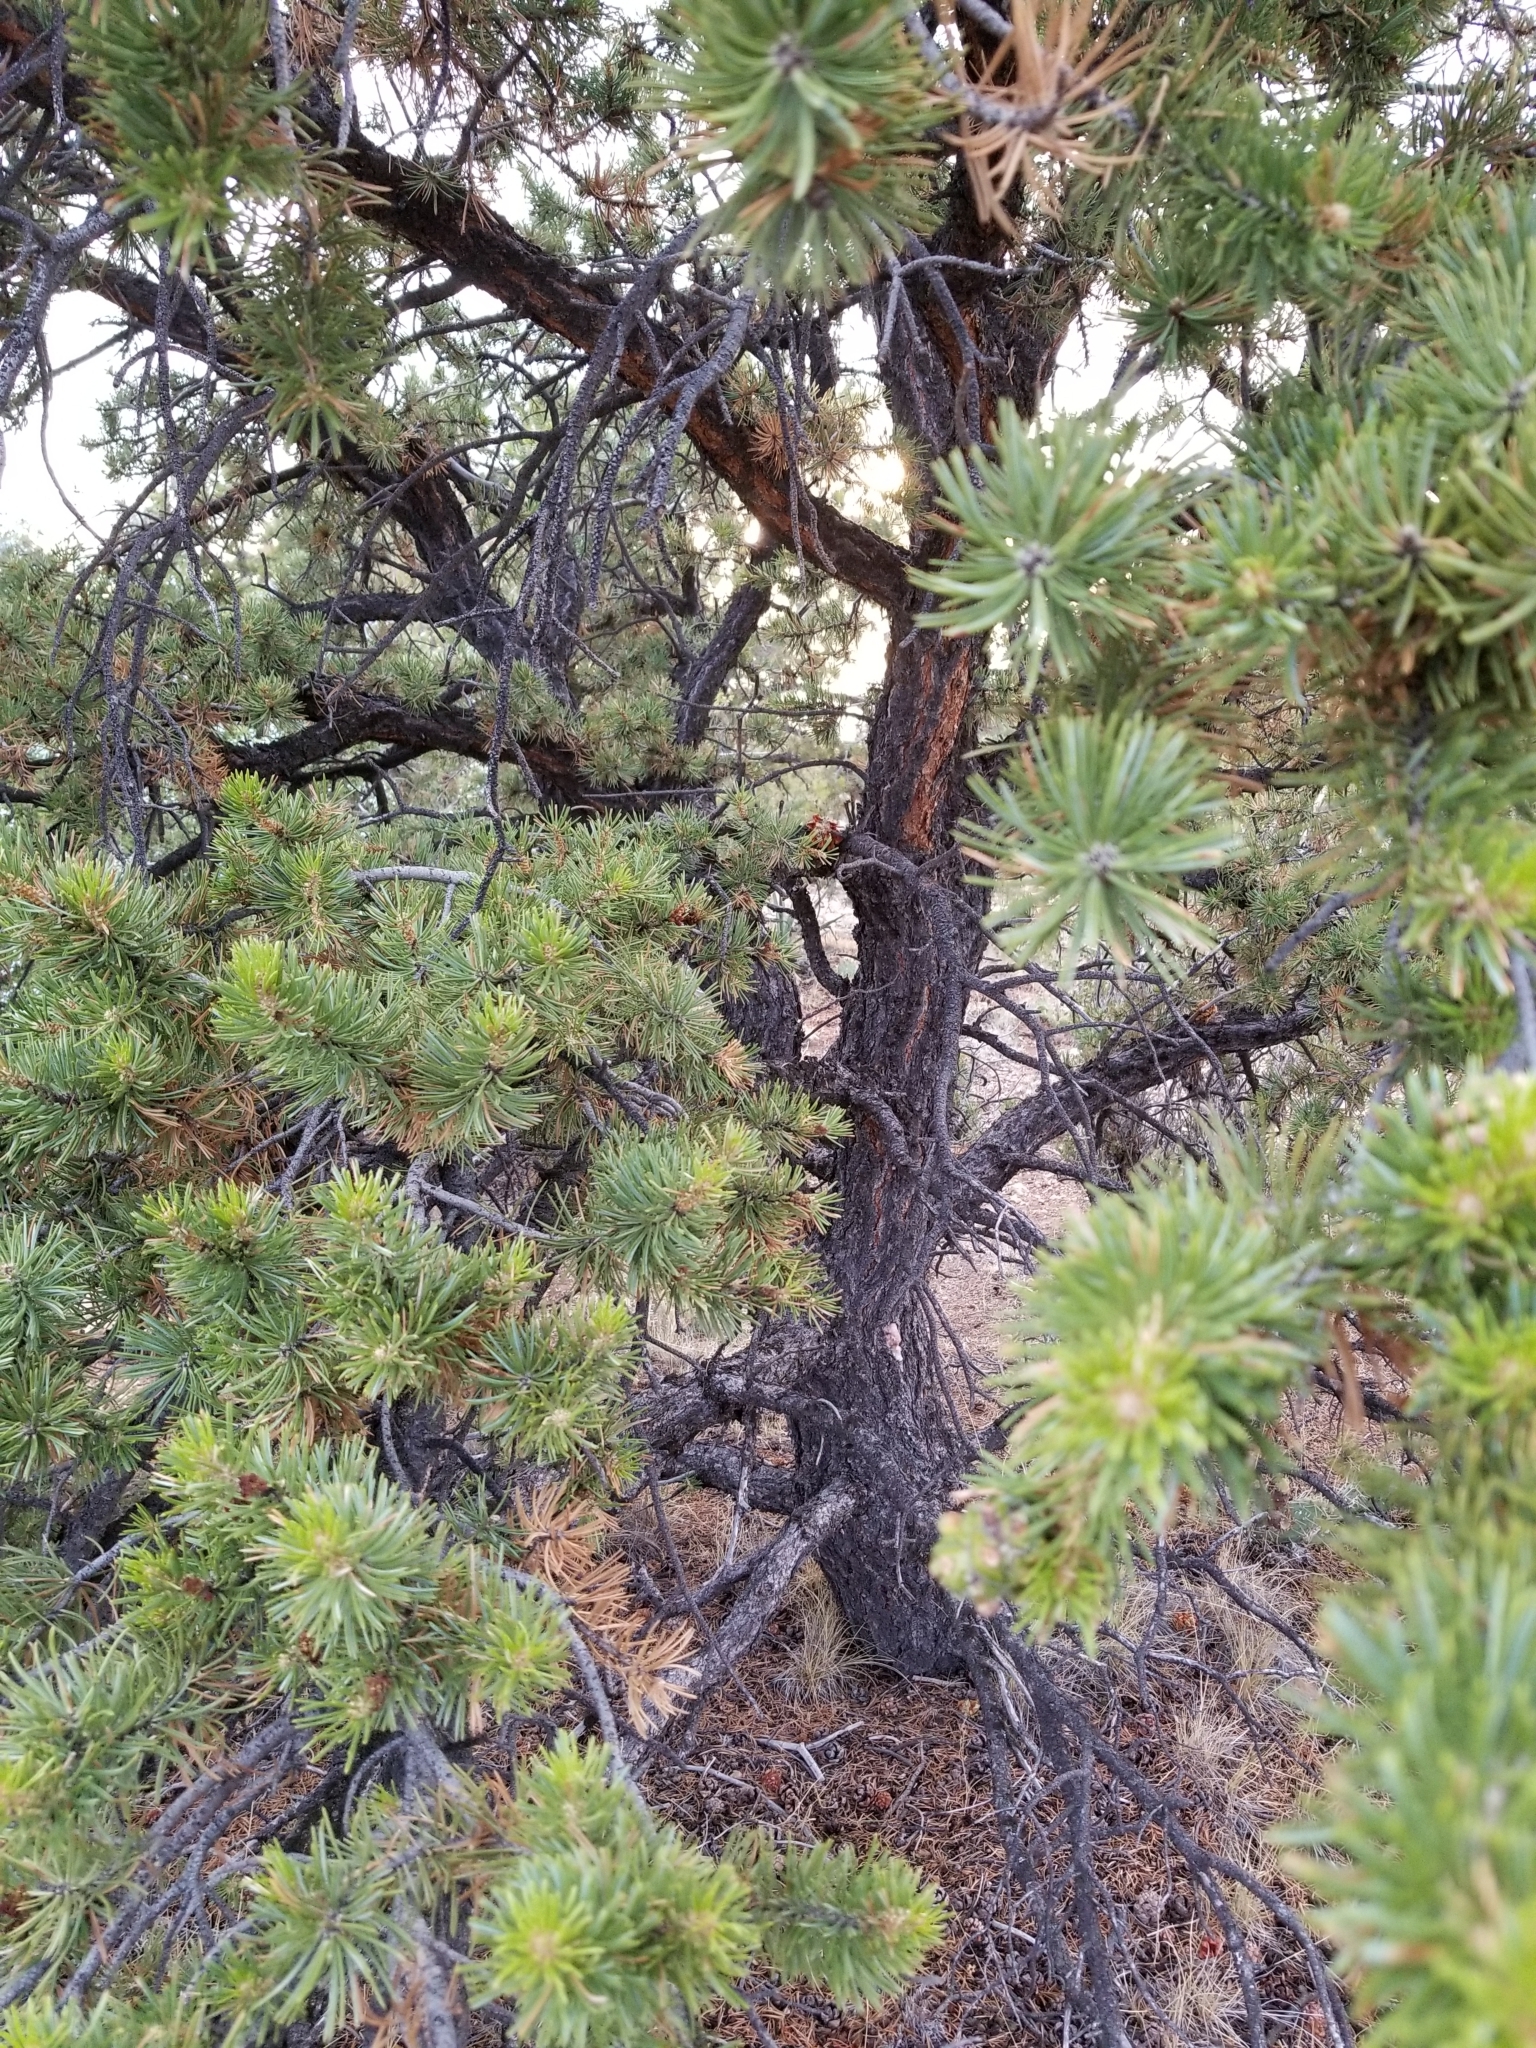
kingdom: Plantae
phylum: Tracheophyta
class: Pinopsida
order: Pinales
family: Pinaceae
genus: Pinus
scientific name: Pinus edulis
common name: Colorado pinyon
